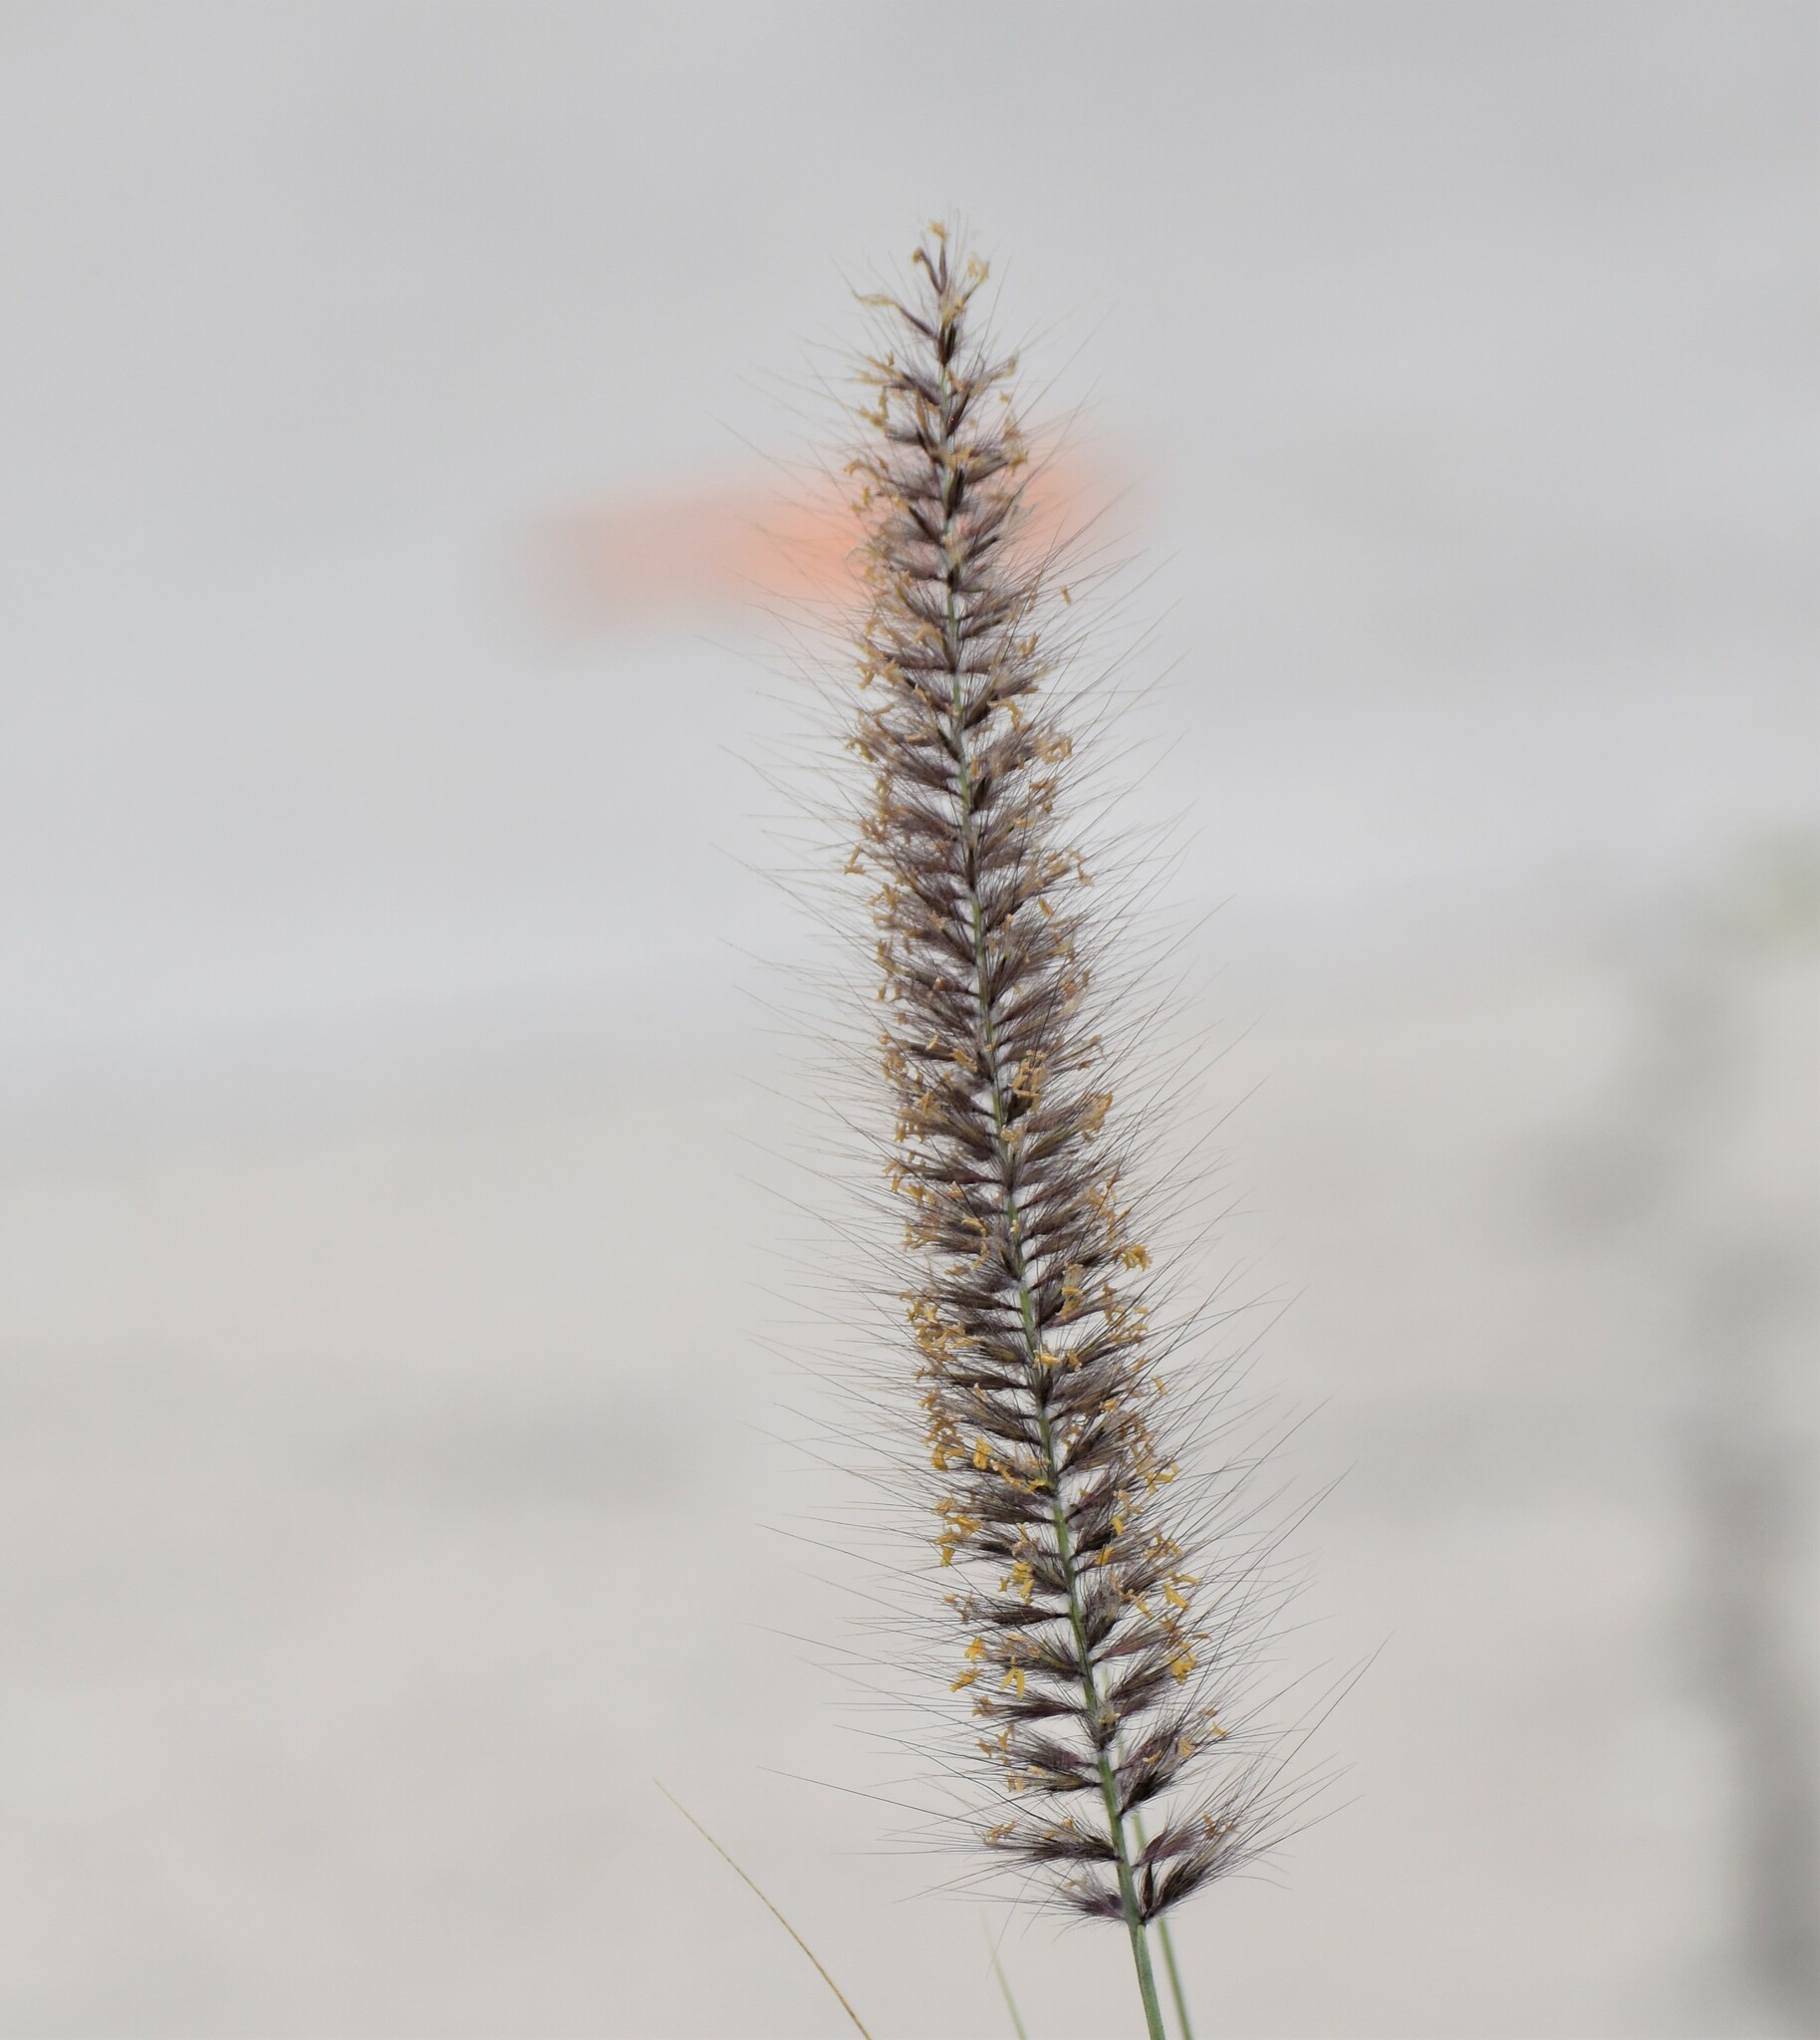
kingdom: Plantae
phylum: Tracheophyta
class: Liliopsida
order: Poales
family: Poaceae
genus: Cenchrus
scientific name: Cenchrus setaceus
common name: Crimson fountaingrass
